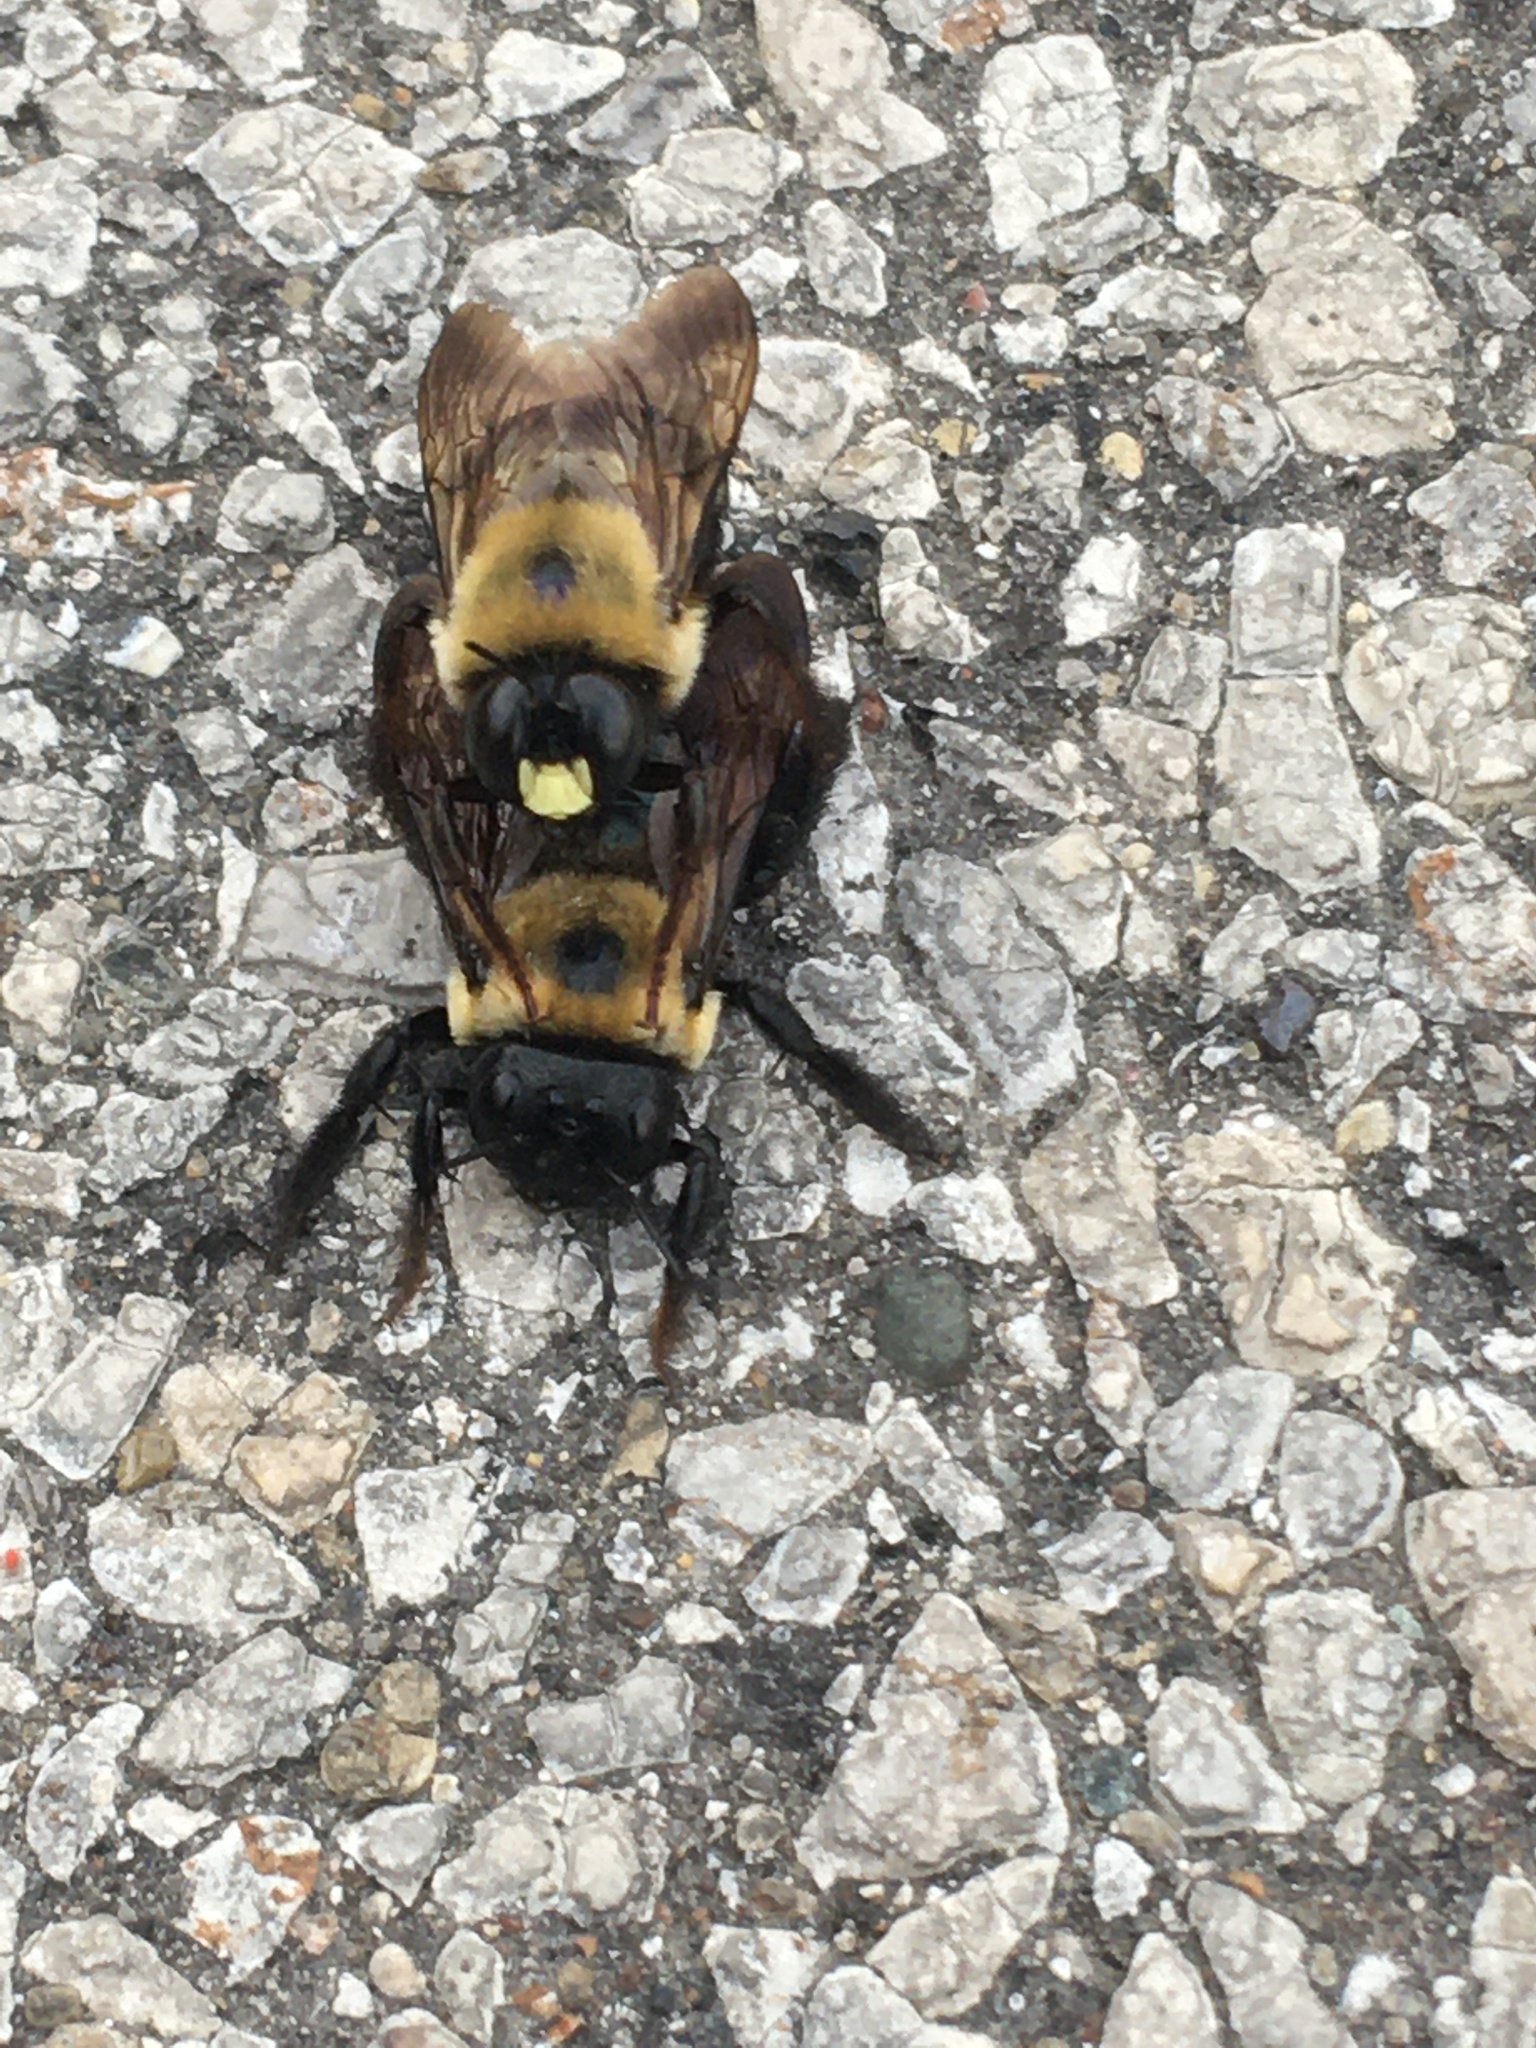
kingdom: Animalia
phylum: Arthropoda
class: Insecta
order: Hymenoptera
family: Apidae
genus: Xylocopa
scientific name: Xylocopa virginica
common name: Carpenter bee
